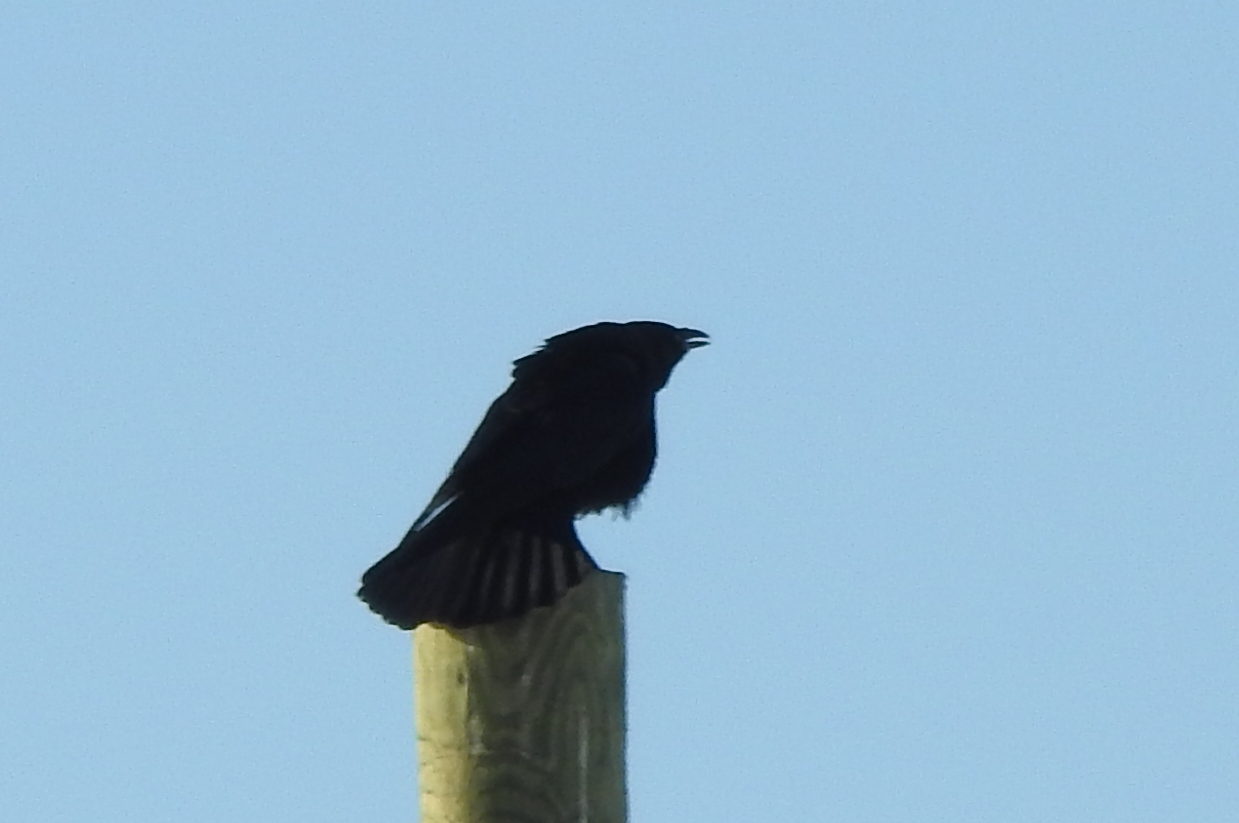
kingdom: Animalia
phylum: Chordata
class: Aves
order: Passeriformes
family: Corvidae
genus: Corvus
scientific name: Corvus corax
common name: Common raven
